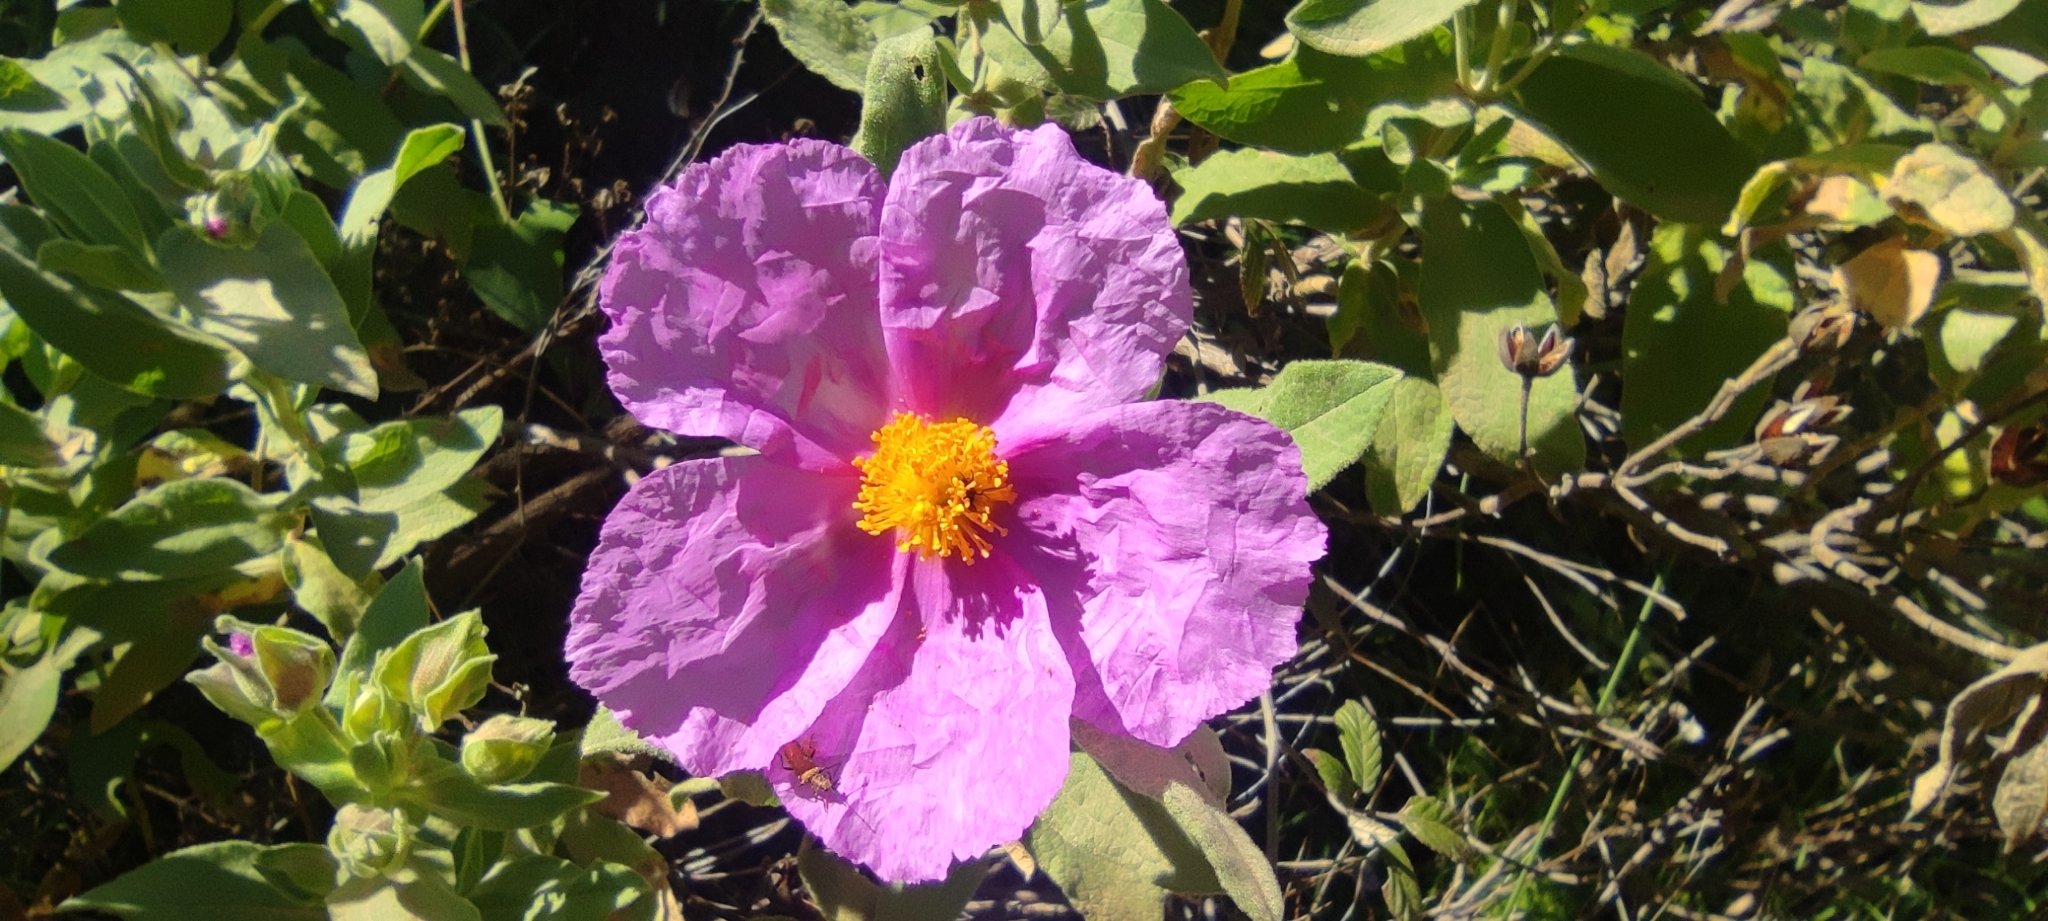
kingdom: Plantae
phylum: Tracheophyta
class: Magnoliopsida
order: Malvales
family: Cistaceae
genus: Cistus
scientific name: Cistus albidus
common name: White-leaf rock-rose
